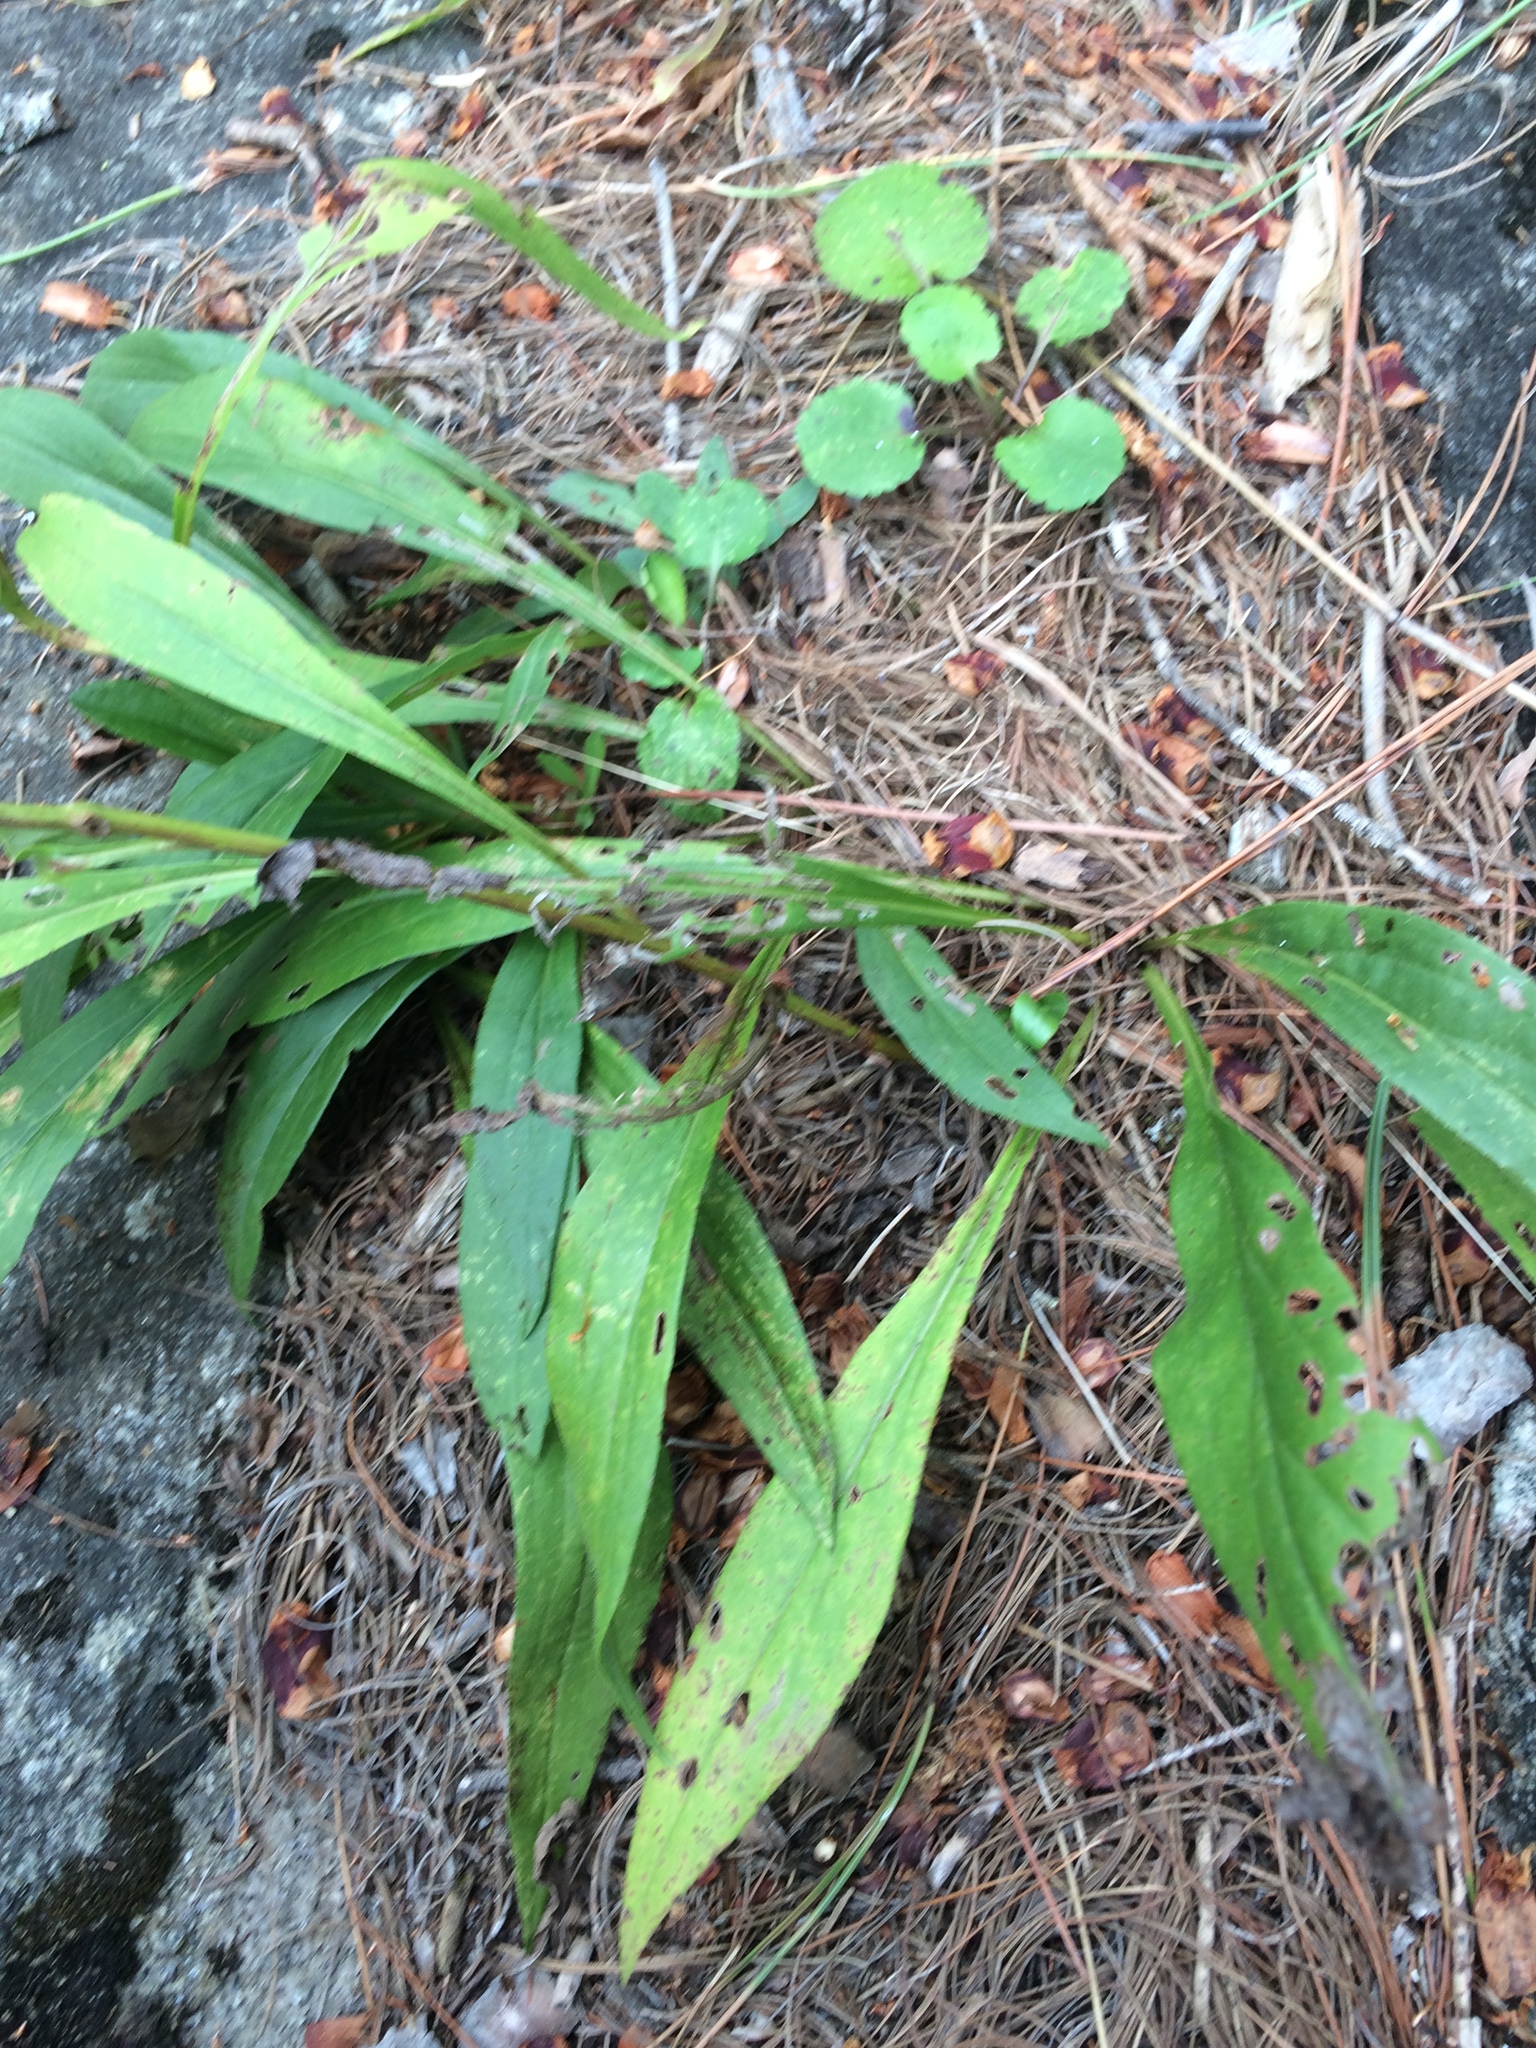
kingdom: Plantae
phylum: Tracheophyta
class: Magnoliopsida
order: Asterales
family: Asteraceae
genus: Solidago
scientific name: Solidago juncea
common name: Early goldenrod
